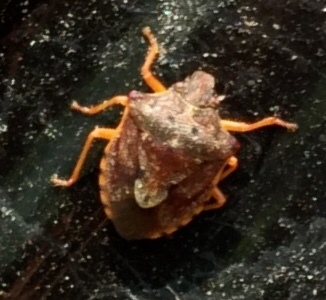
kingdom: Animalia
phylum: Arthropoda
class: Insecta
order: Hemiptera
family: Pentatomidae
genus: Dendrocoris
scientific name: Dendrocoris humeralis
